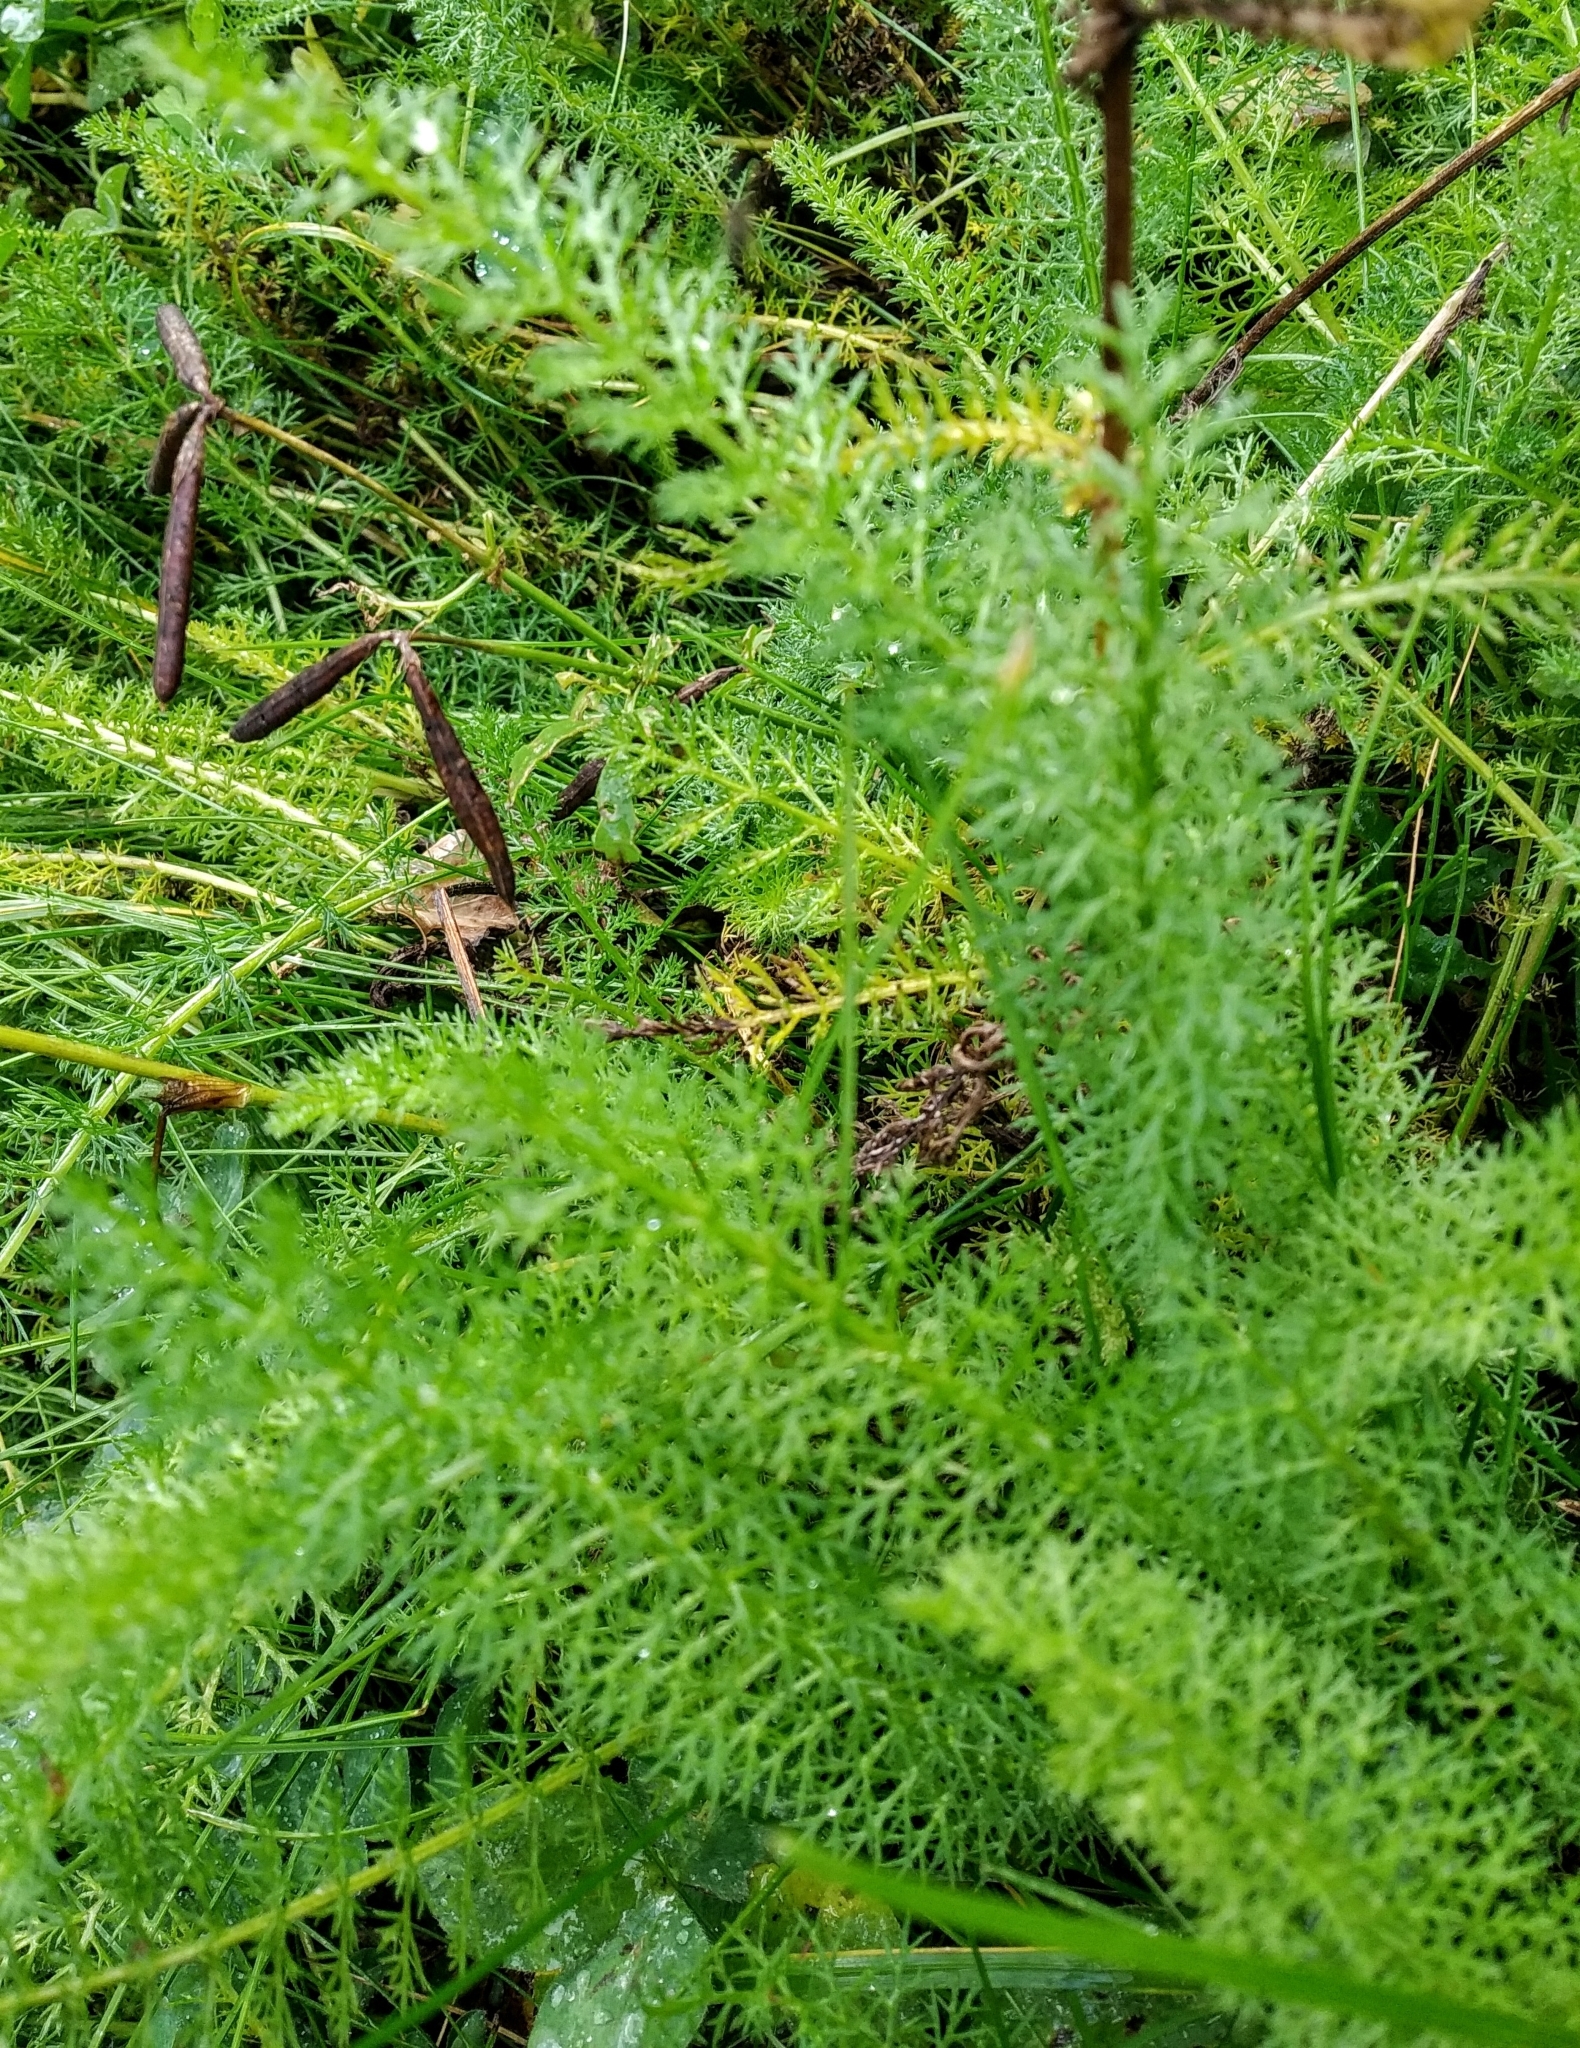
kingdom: Plantae
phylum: Tracheophyta
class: Magnoliopsida
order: Asterales
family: Asteraceae
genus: Achillea
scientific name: Achillea millefolium
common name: Yarrow
